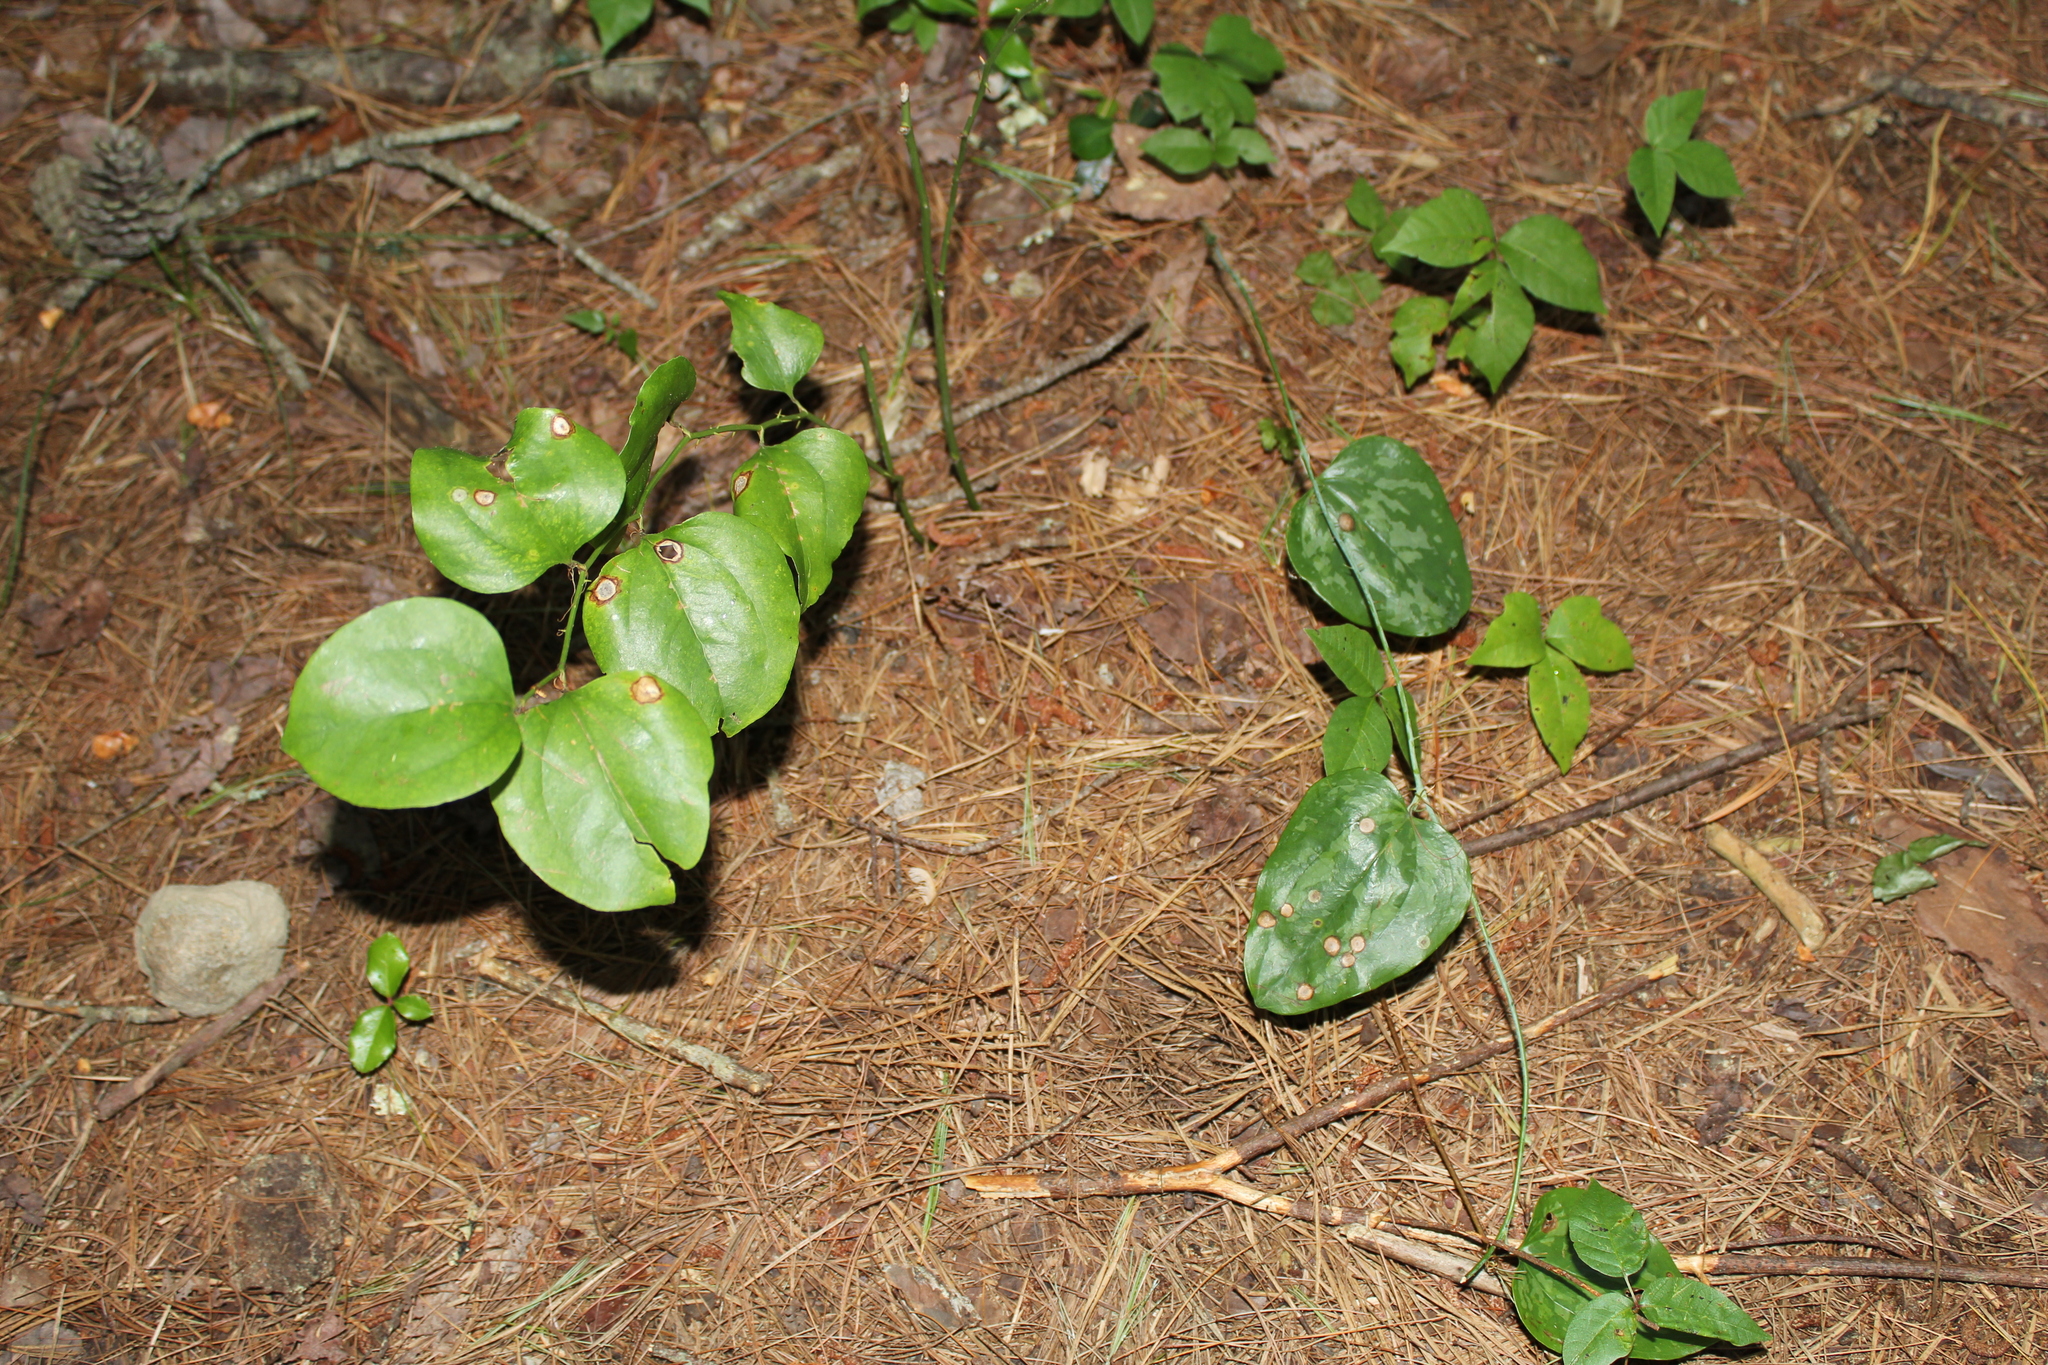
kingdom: Plantae
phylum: Tracheophyta
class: Liliopsida
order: Liliales
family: Smilacaceae
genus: Smilax
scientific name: Smilax rotundifolia
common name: Bullbriar
